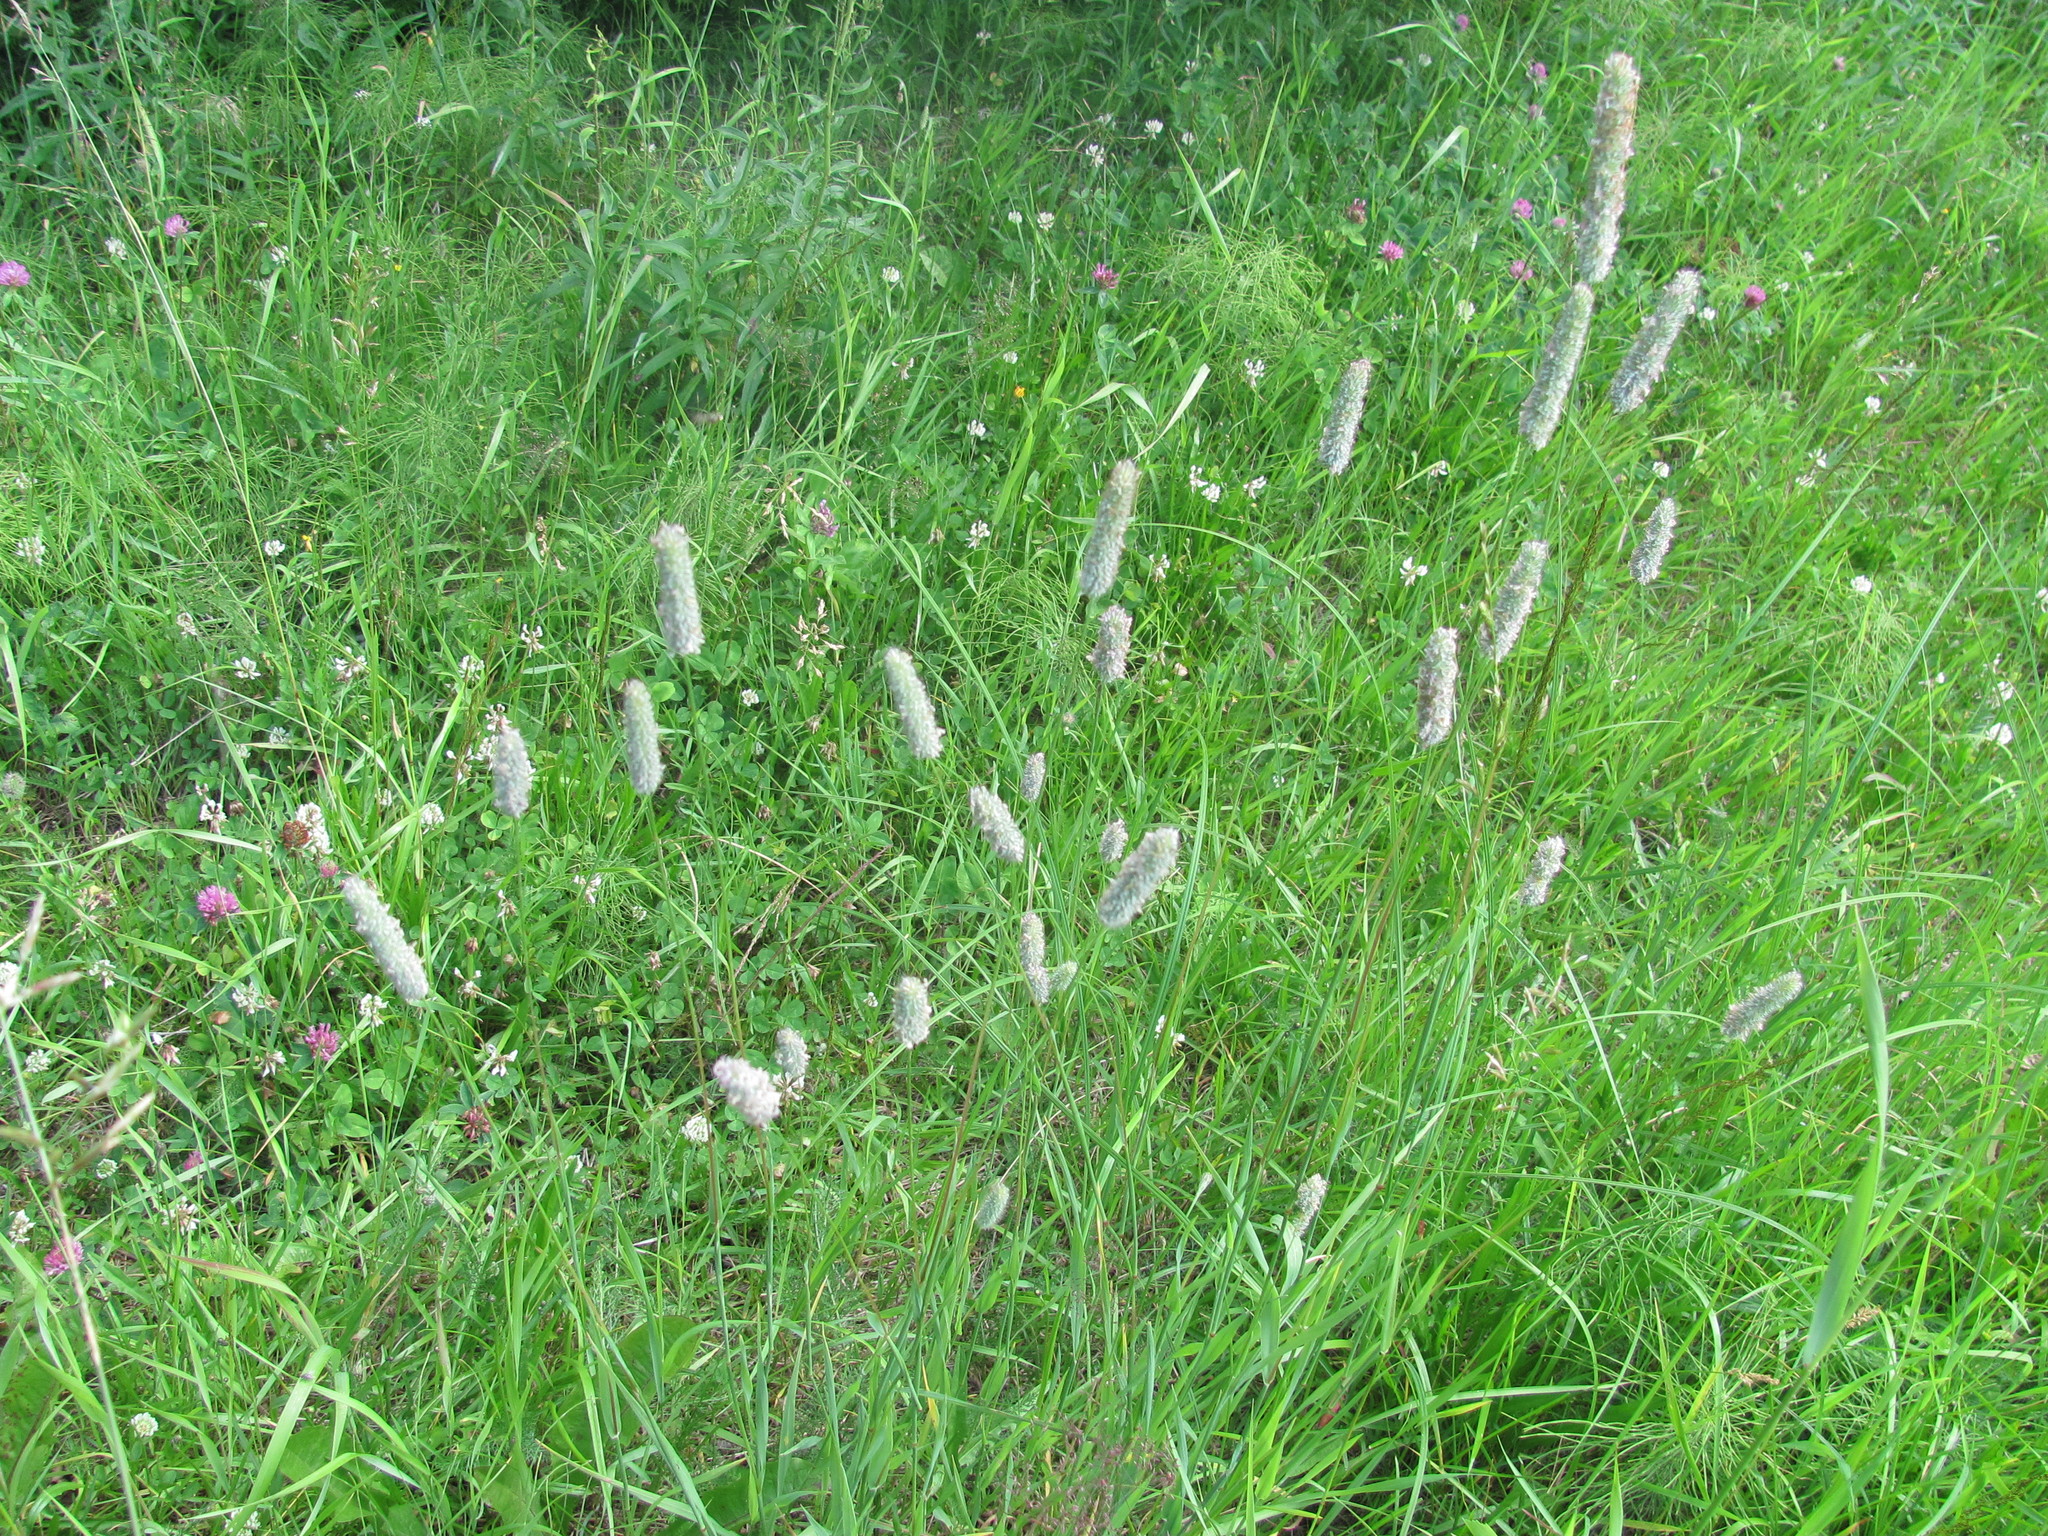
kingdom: Plantae
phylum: Tracheophyta
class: Liliopsida
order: Poales
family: Poaceae
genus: Phleum
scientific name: Phleum pratense
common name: Timothy grass
